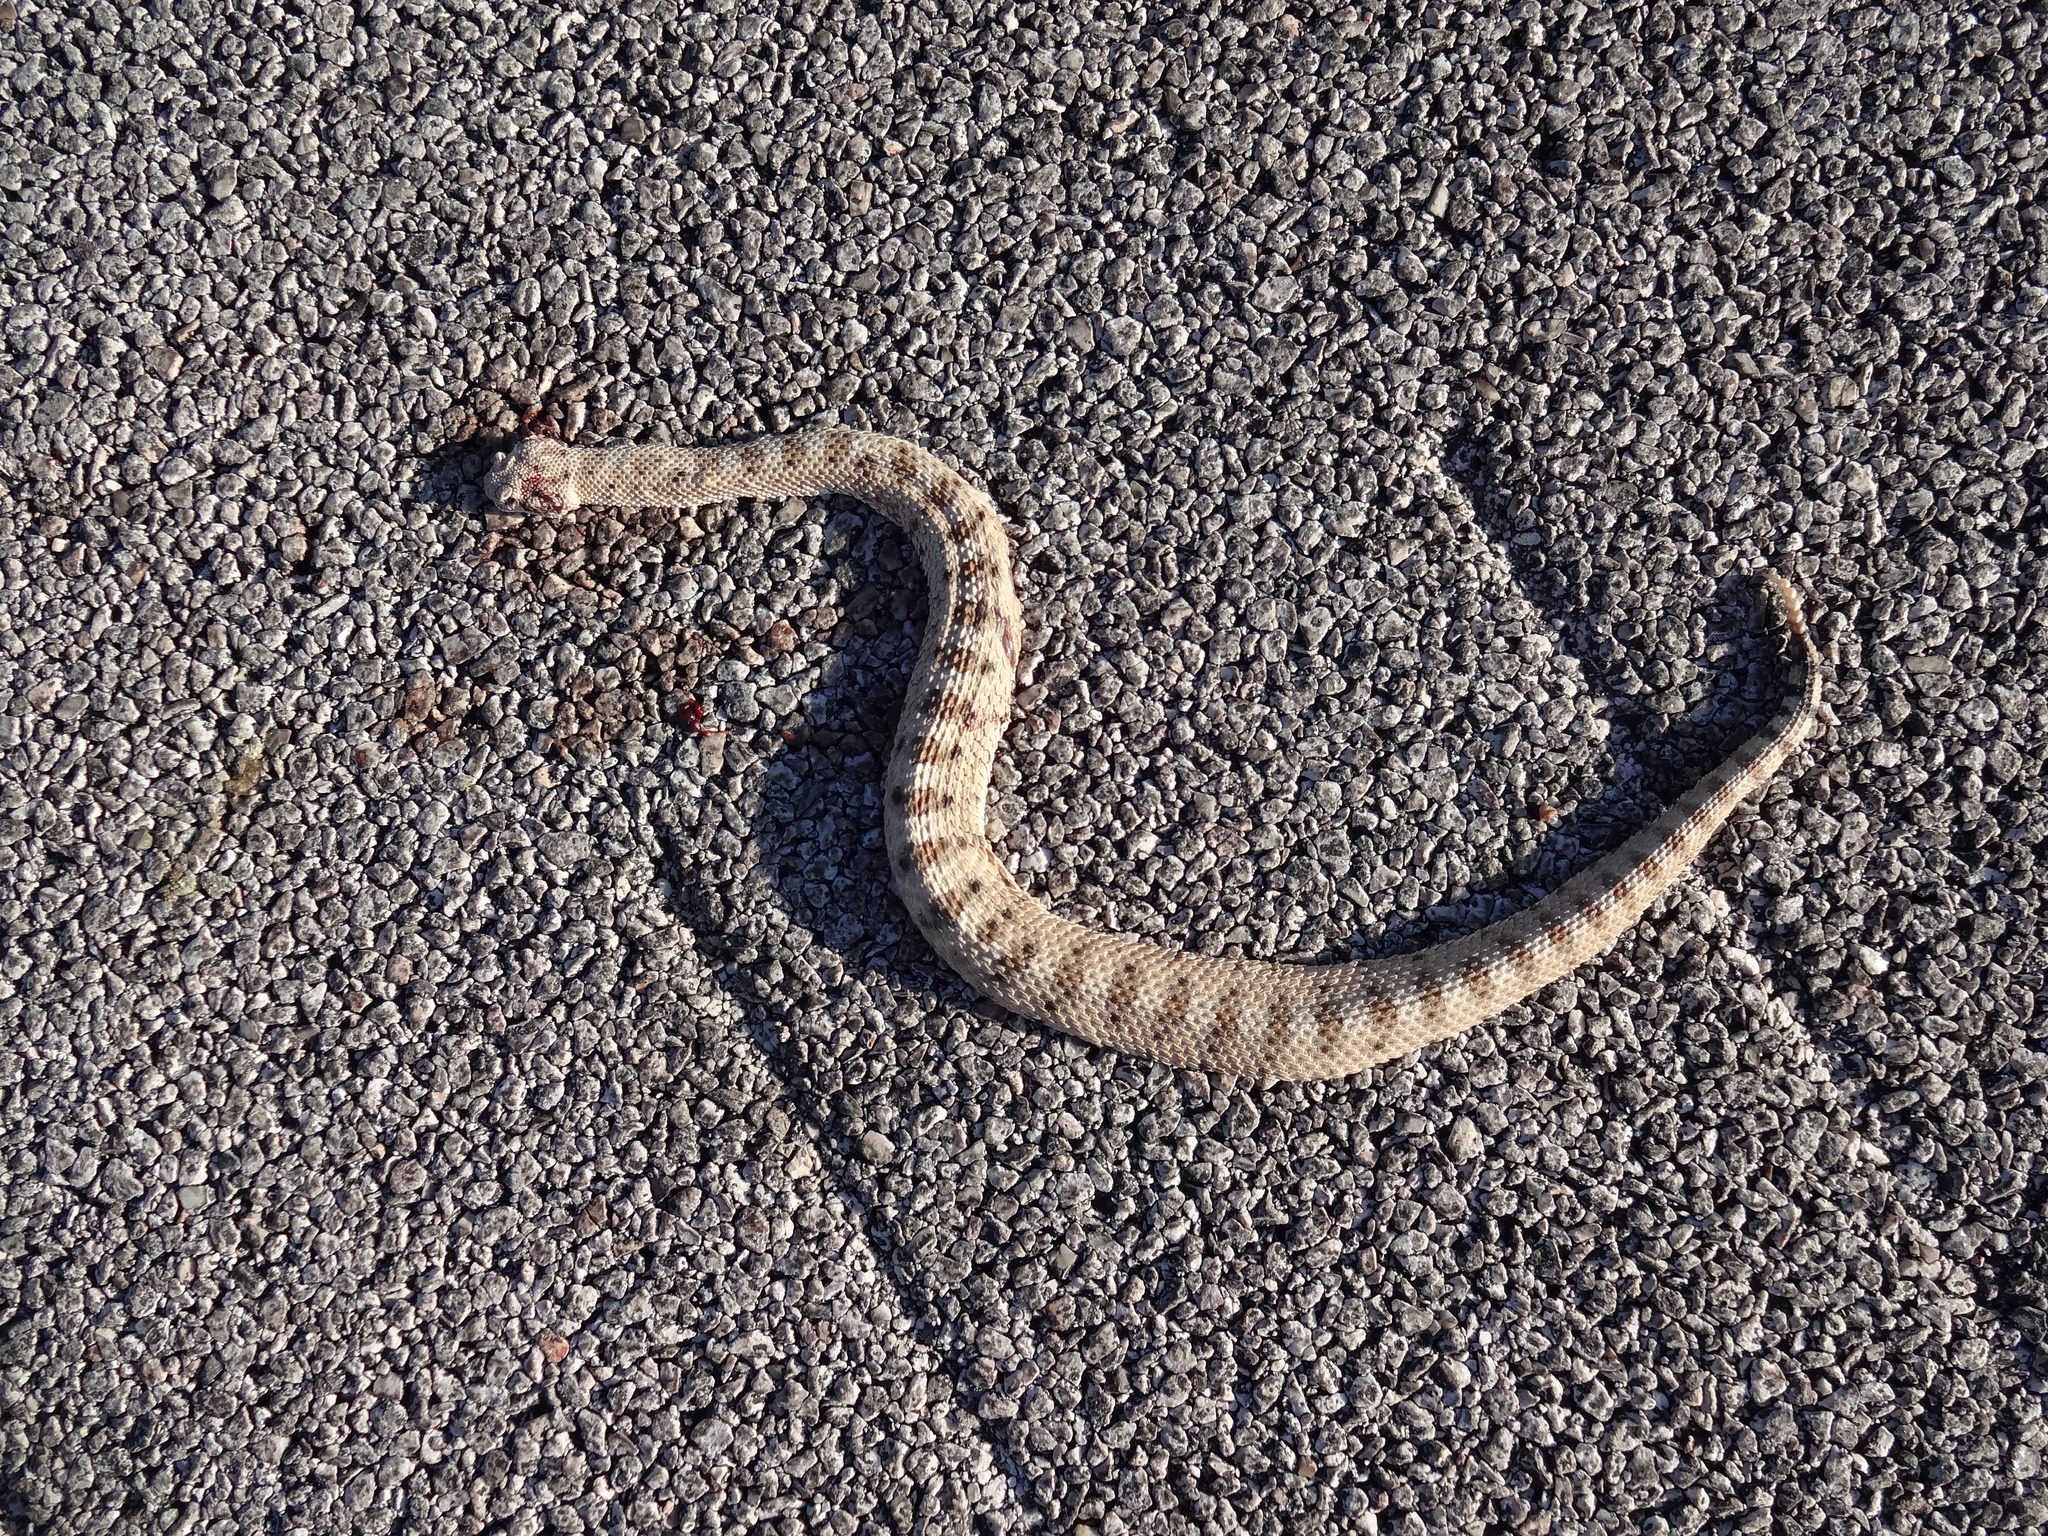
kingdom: Animalia
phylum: Chordata
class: Squamata
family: Viperidae
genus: Crotalus
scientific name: Crotalus cerastes
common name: Sidewinder
